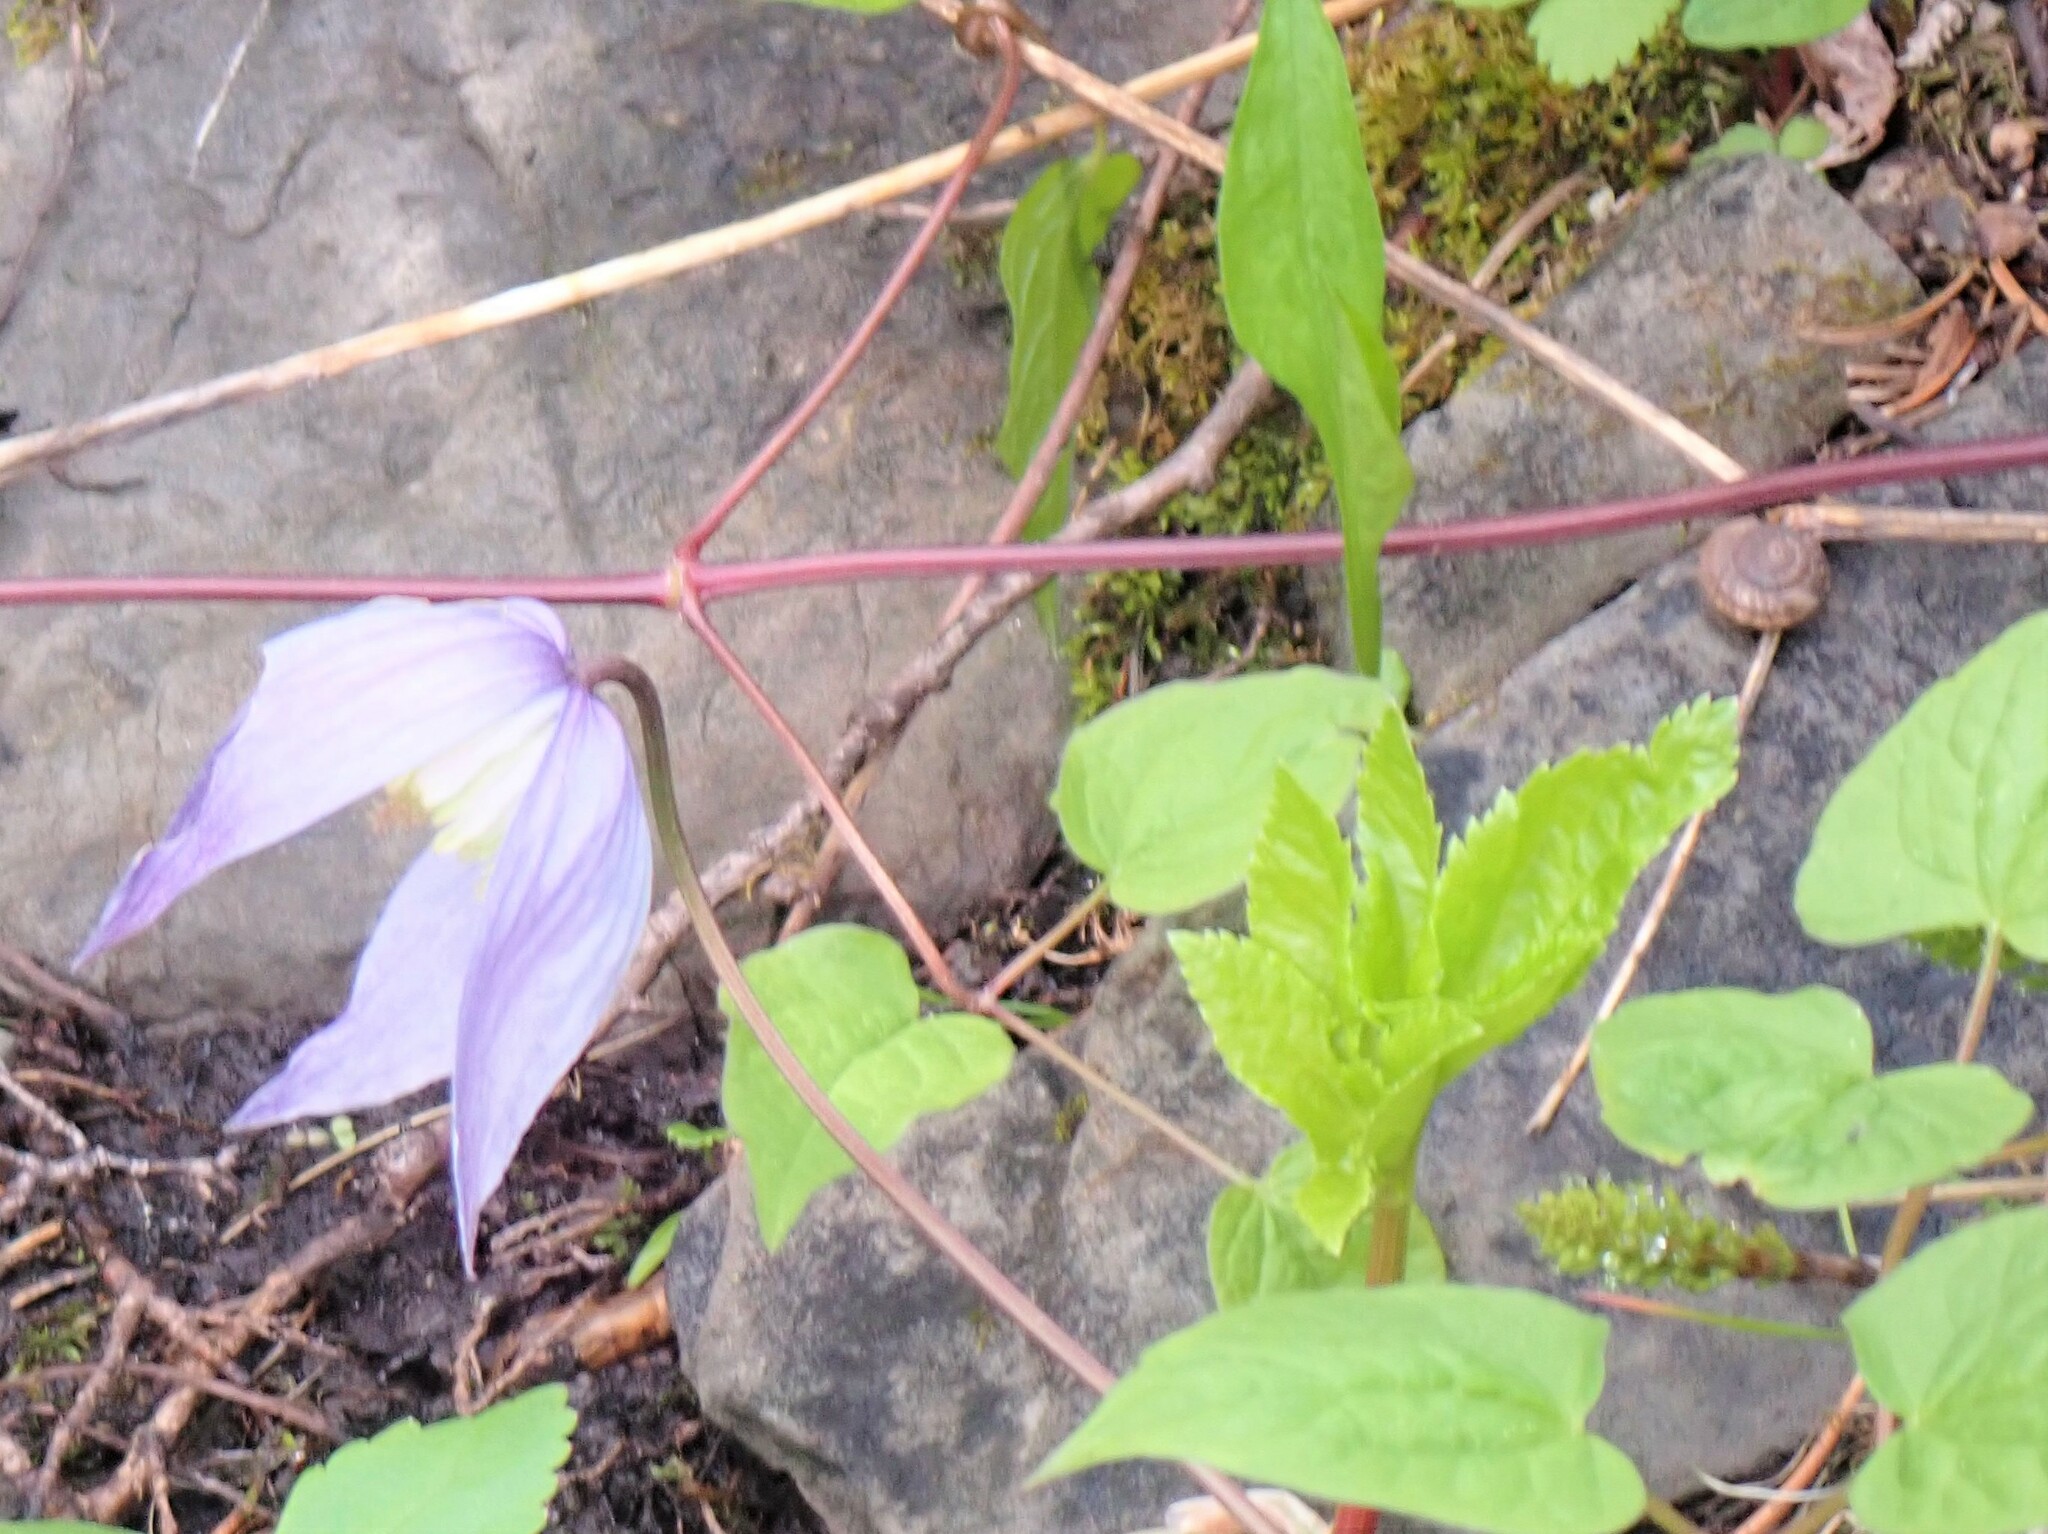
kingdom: Plantae
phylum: Tracheophyta
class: Magnoliopsida
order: Ranunculales
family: Ranunculaceae
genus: Clematis
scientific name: Clematis occidentalis
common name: Purple clematis
